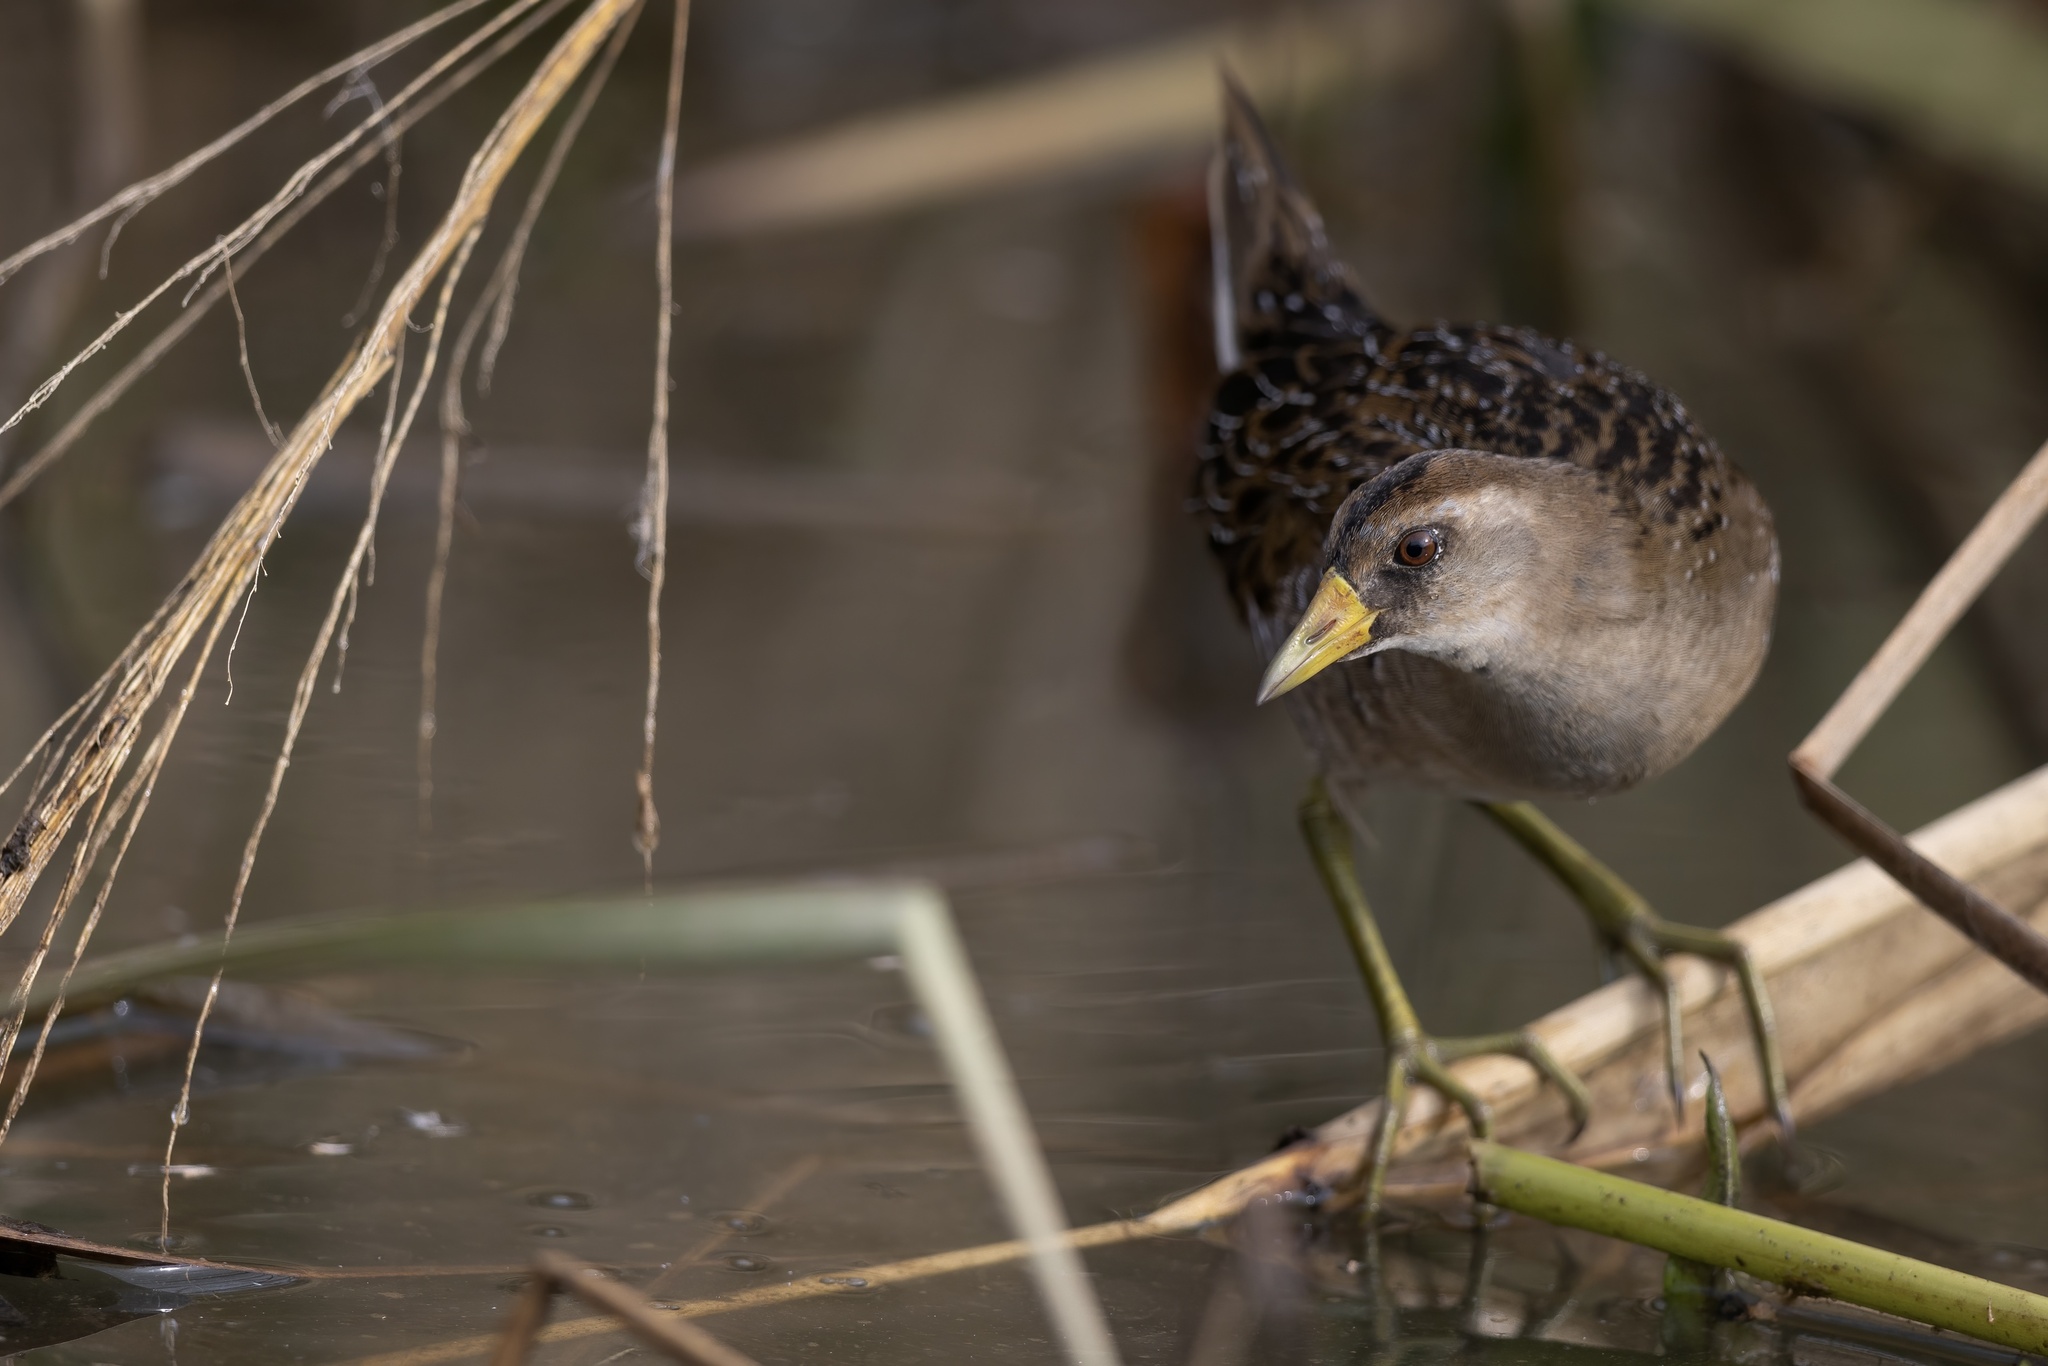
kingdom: Animalia
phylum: Chordata
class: Aves
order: Gruiformes
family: Rallidae
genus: Porzana
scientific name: Porzana carolina
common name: Sora
